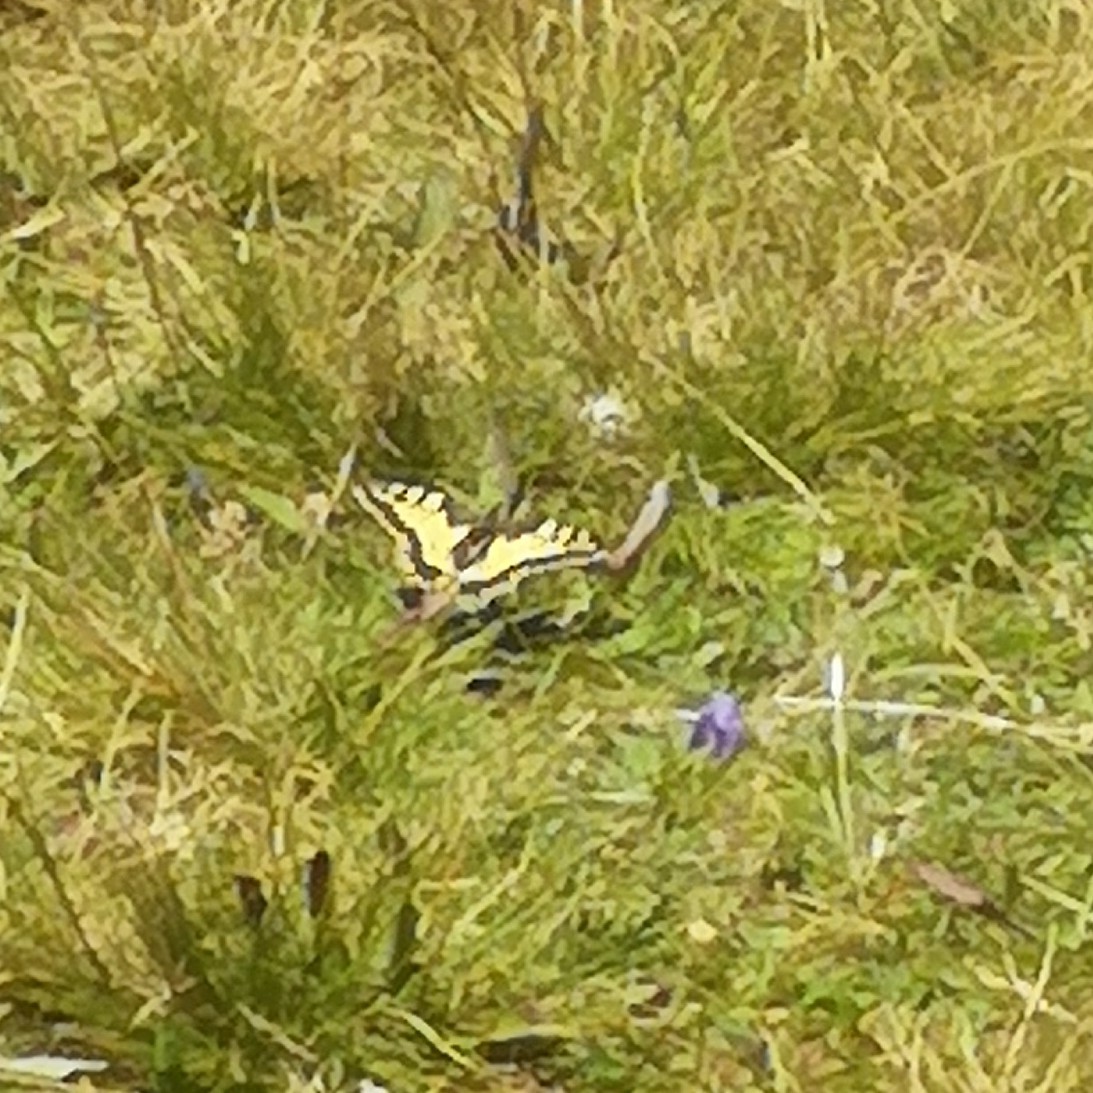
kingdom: Animalia
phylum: Arthropoda
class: Insecta
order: Lepidoptera
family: Papilionidae
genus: Papilio
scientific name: Papilio machaon
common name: Swallowtail
